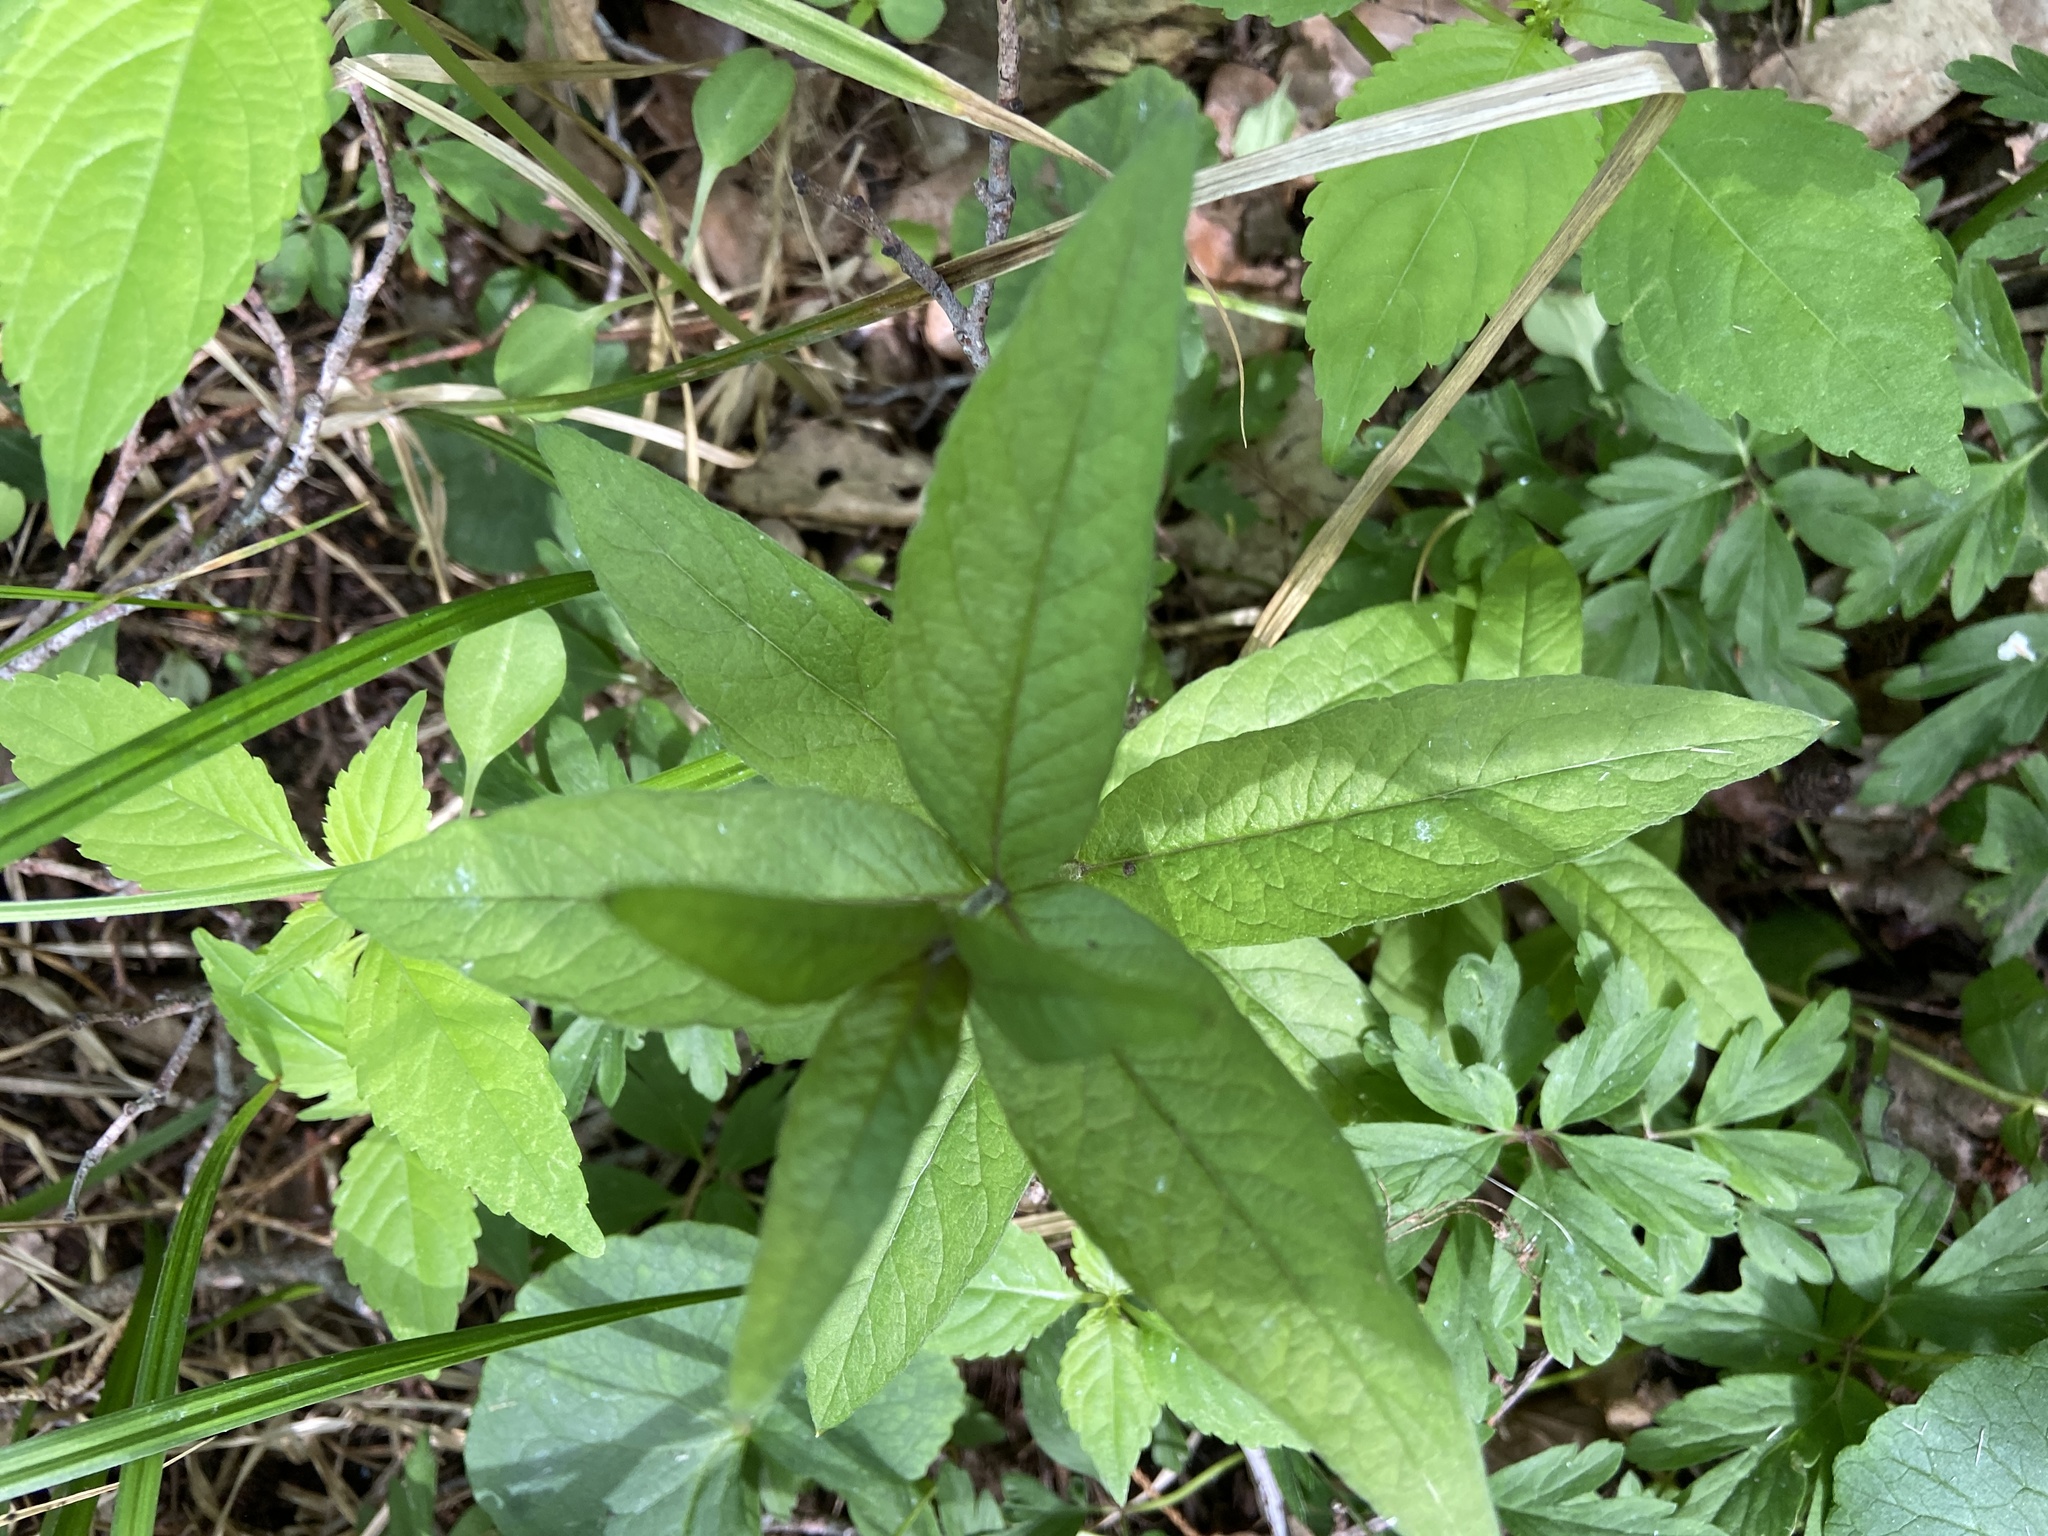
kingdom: Plantae
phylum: Tracheophyta
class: Magnoliopsida
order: Ericales
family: Primulaceae
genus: Lysimachia
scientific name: Lysimachia vulgaris
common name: Yellow loosestrife
